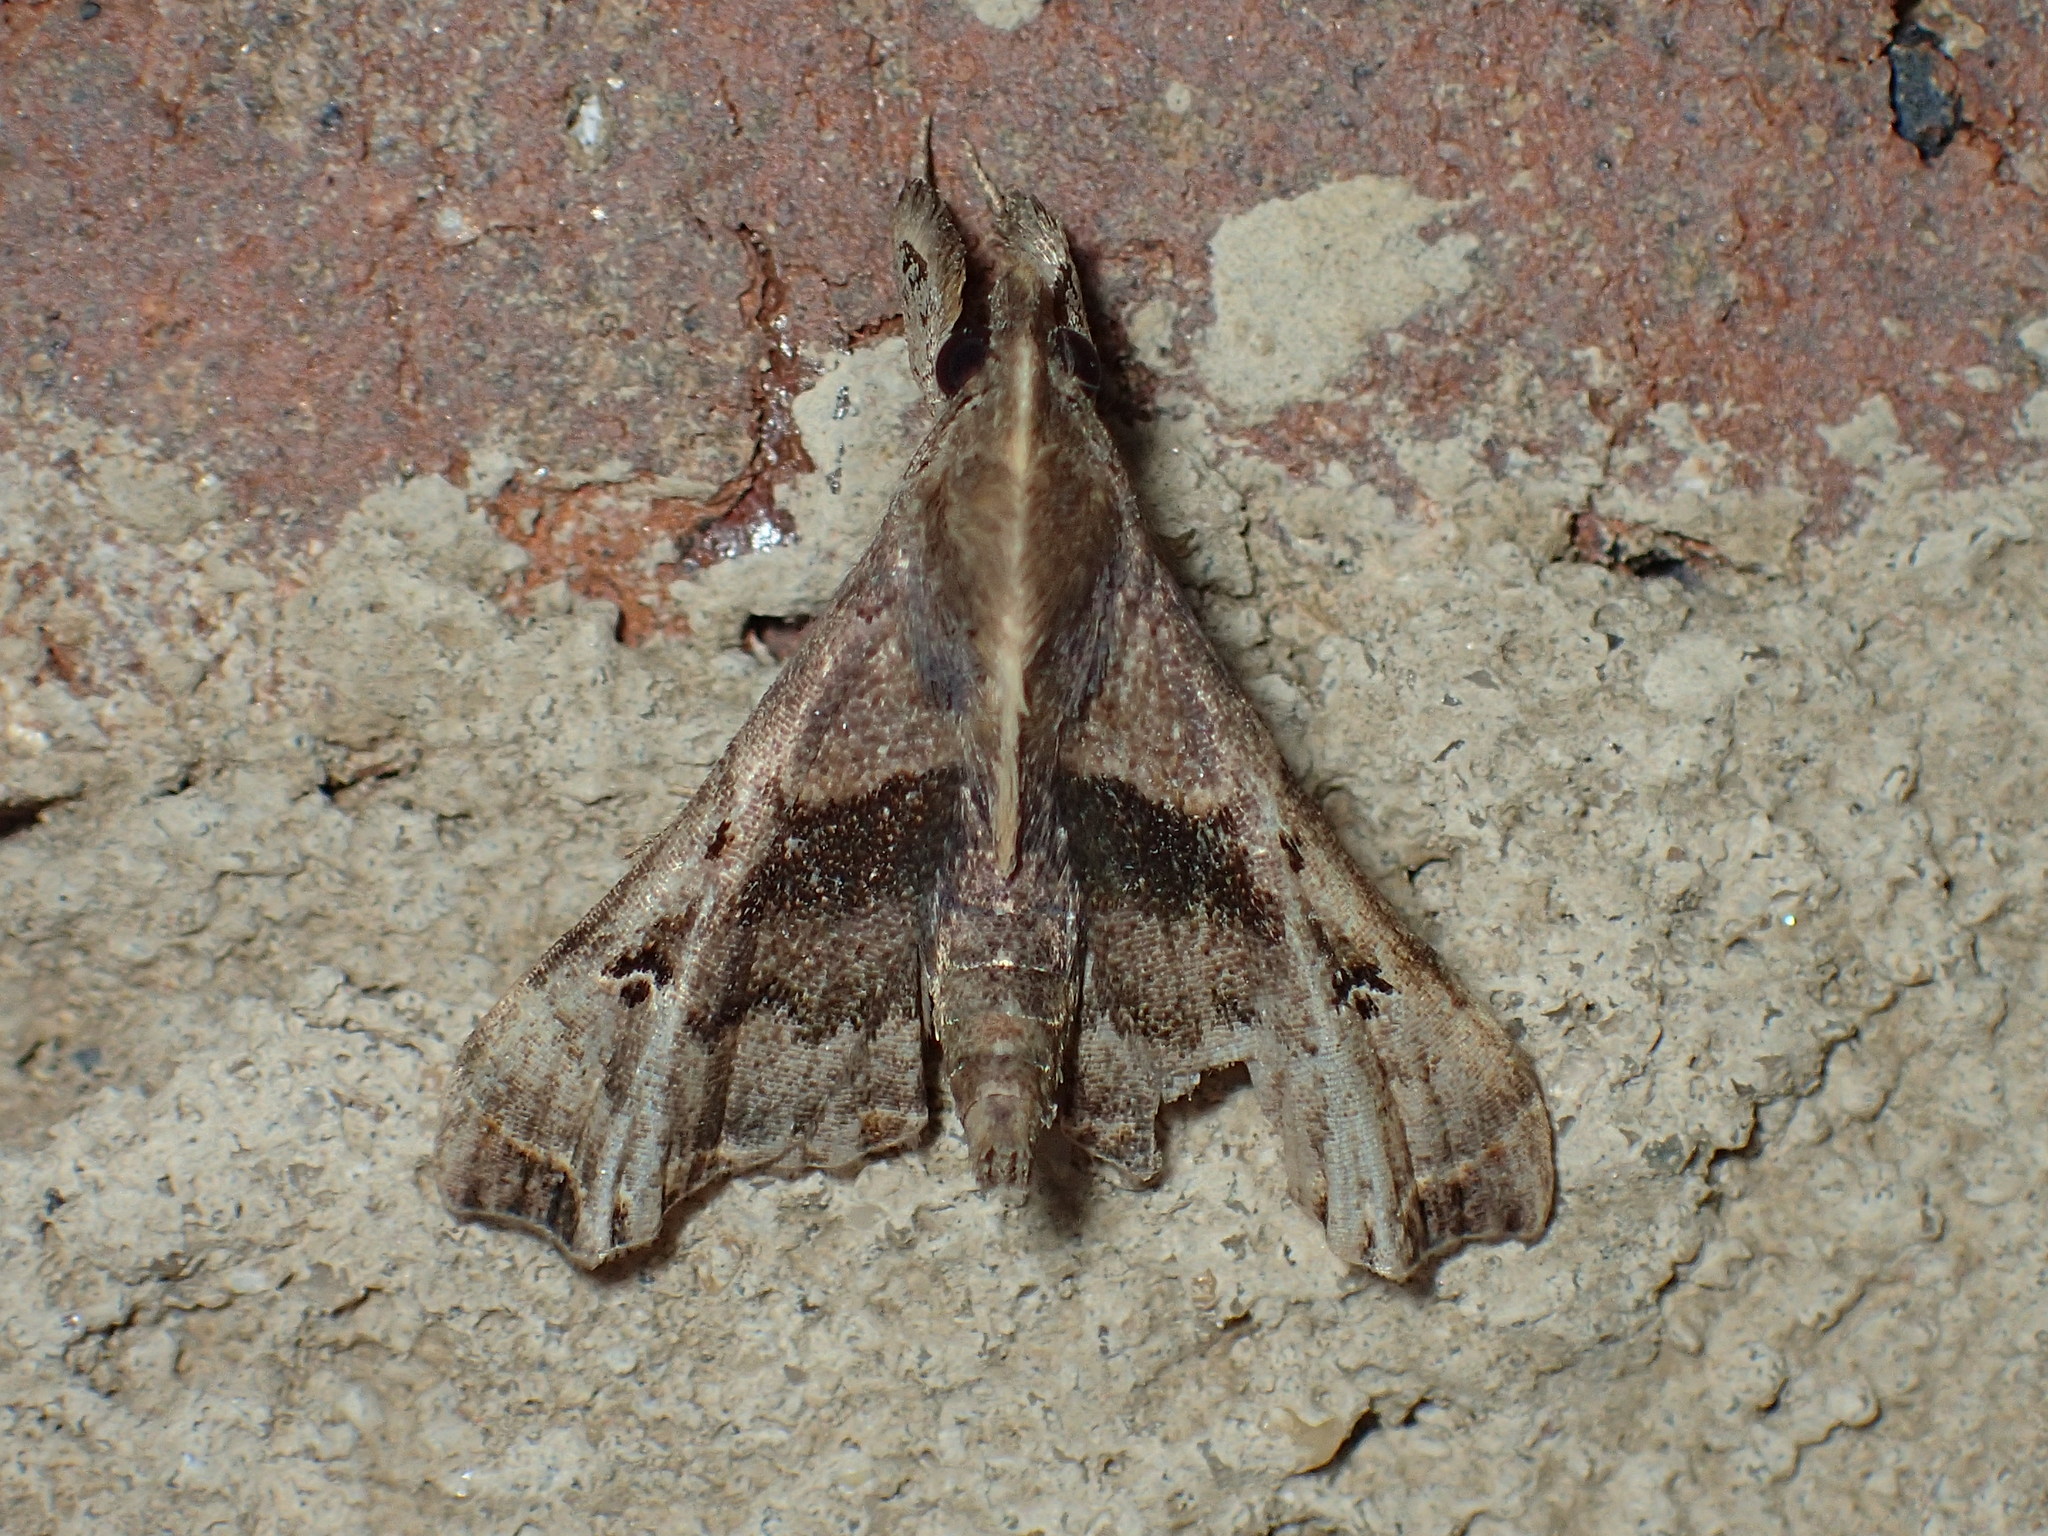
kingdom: Animalia
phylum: Arthropoda
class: Insecta
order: Lepidoptera
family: Erebidae
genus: Palthis
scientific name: Palthis asopialis
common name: Faint-spotted palthis moth
